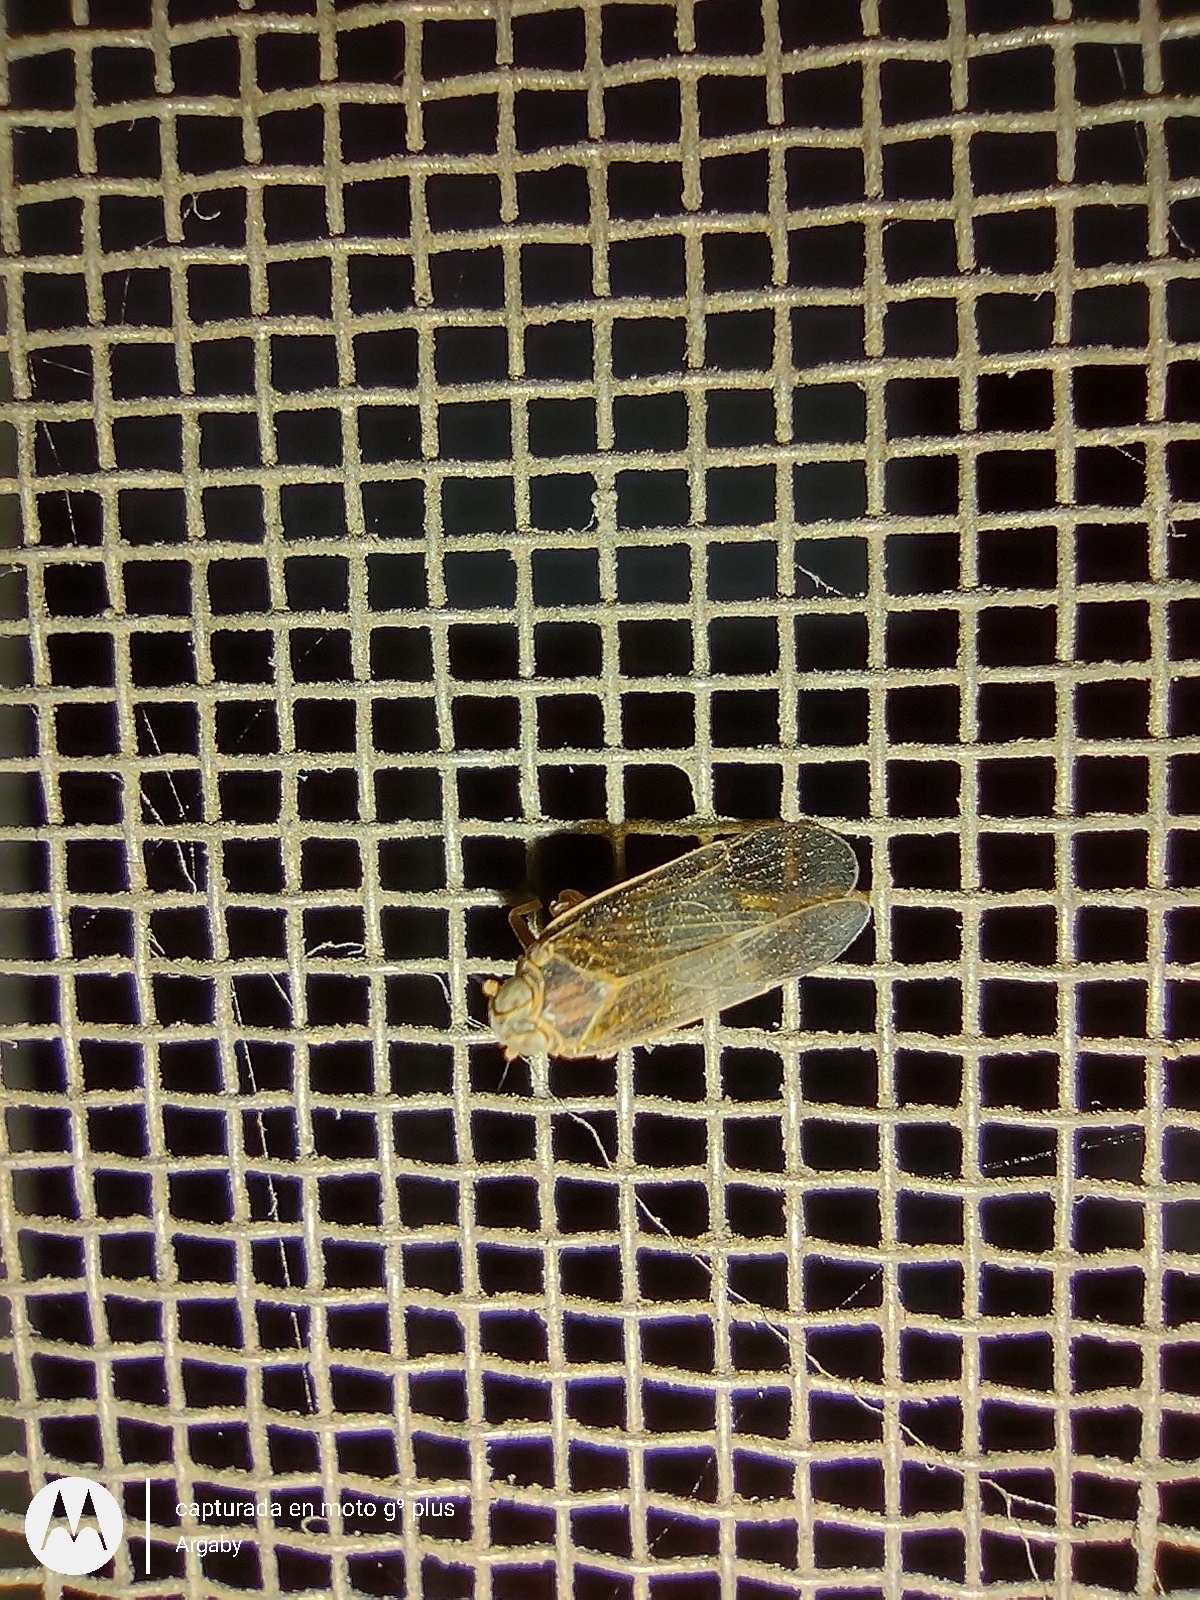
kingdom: Animalia
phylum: Arthropoda
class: Insecta
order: Hemiptera
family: Cixiidae
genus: Melanoliarus
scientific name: Melanoliarus dimidiatus
